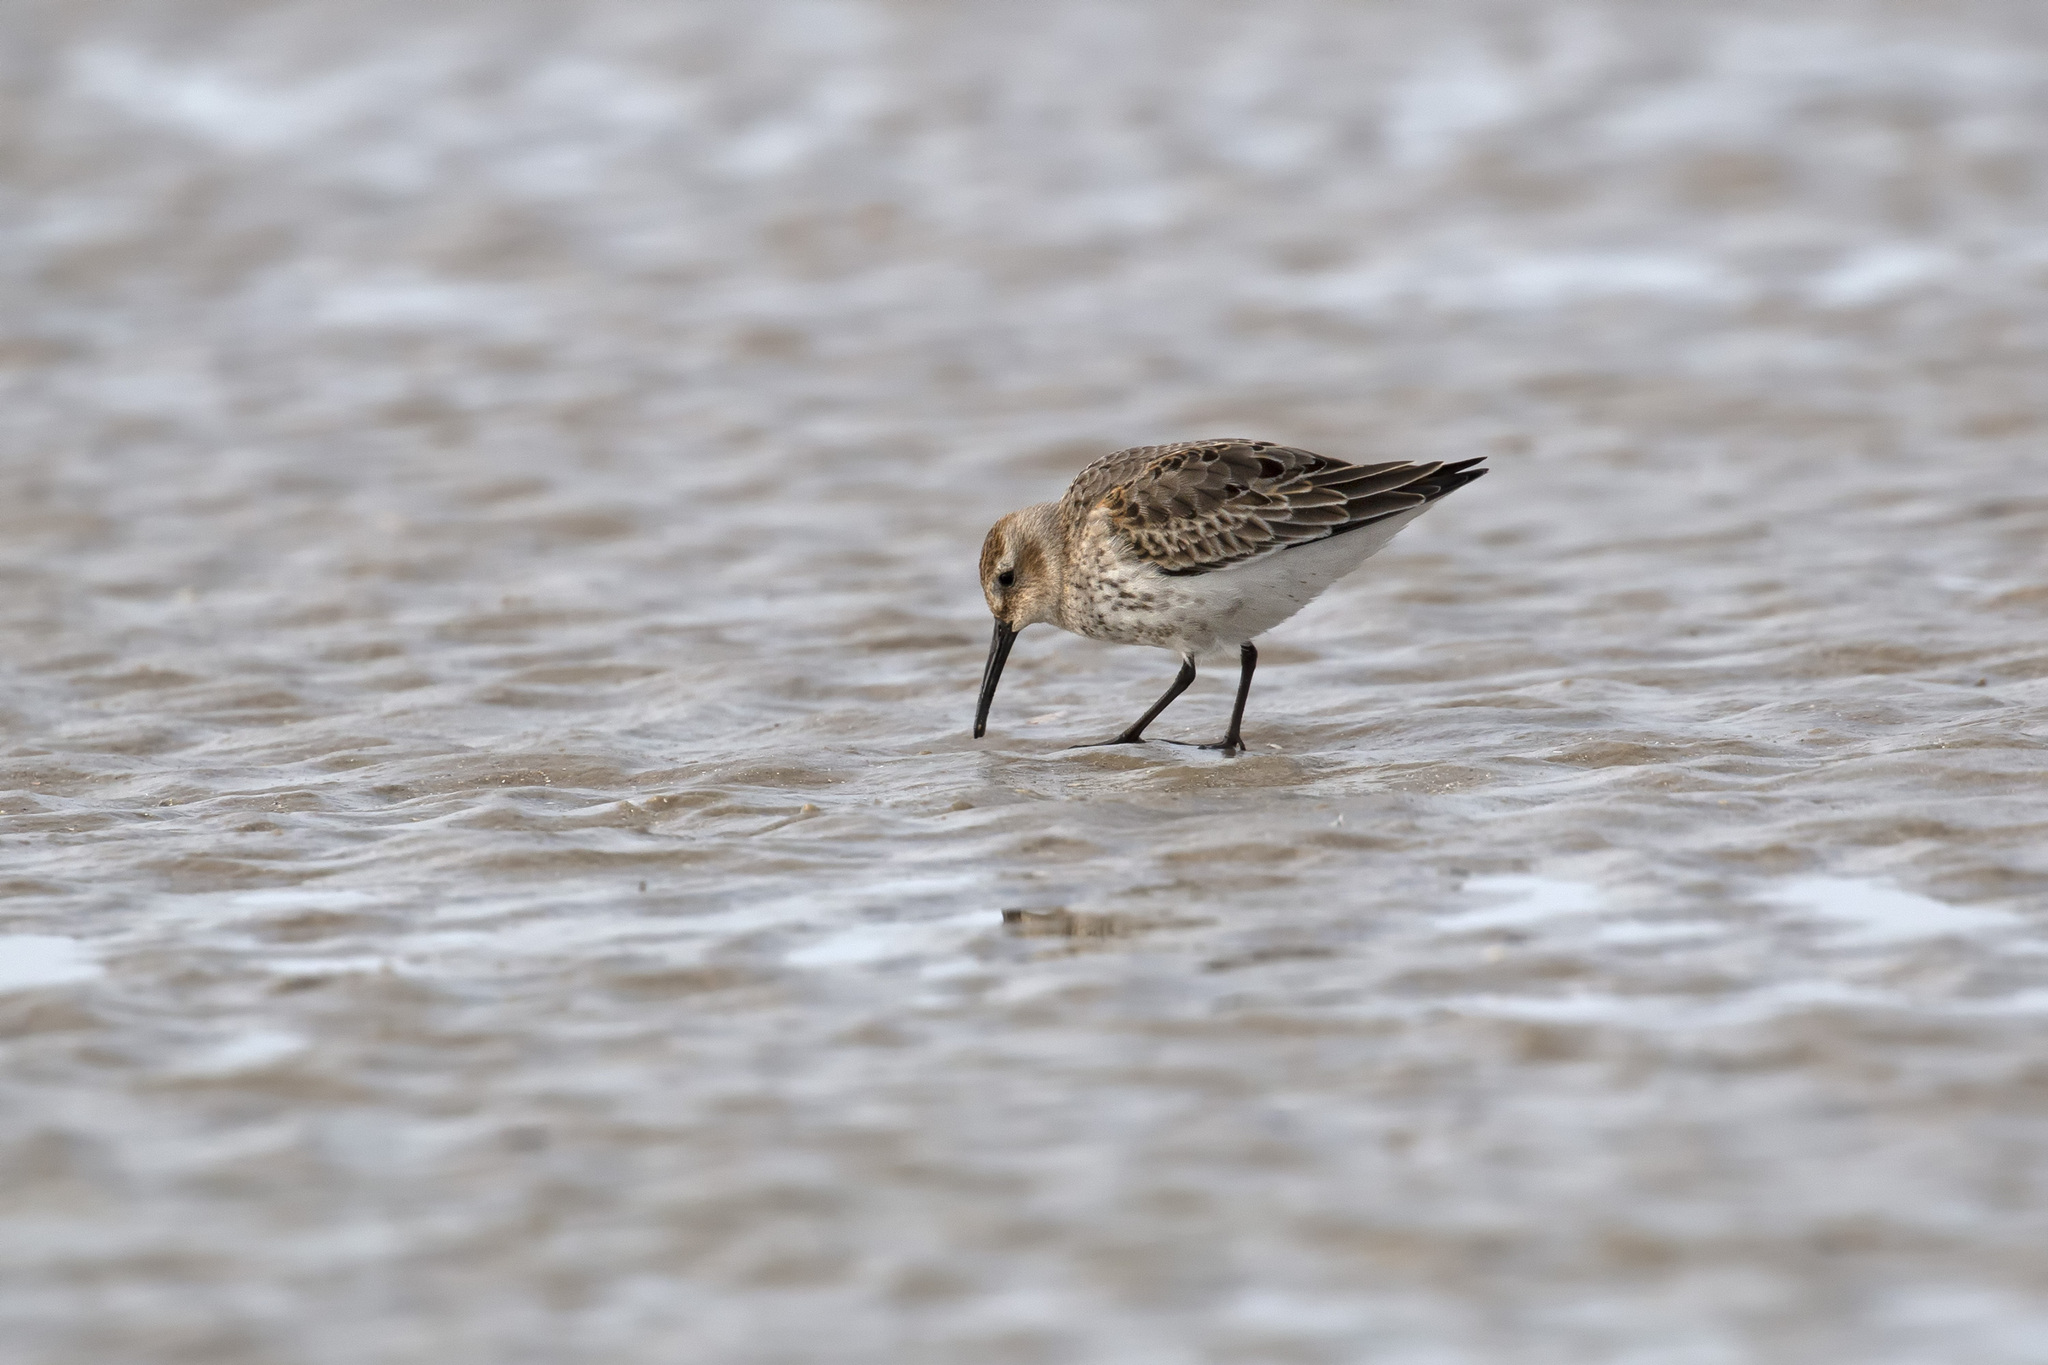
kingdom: Animalia
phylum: Chordata
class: Aves
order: Charadriiformes
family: Scolopacidae
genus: Calidris
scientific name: Calidris alpina
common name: Dunlin
